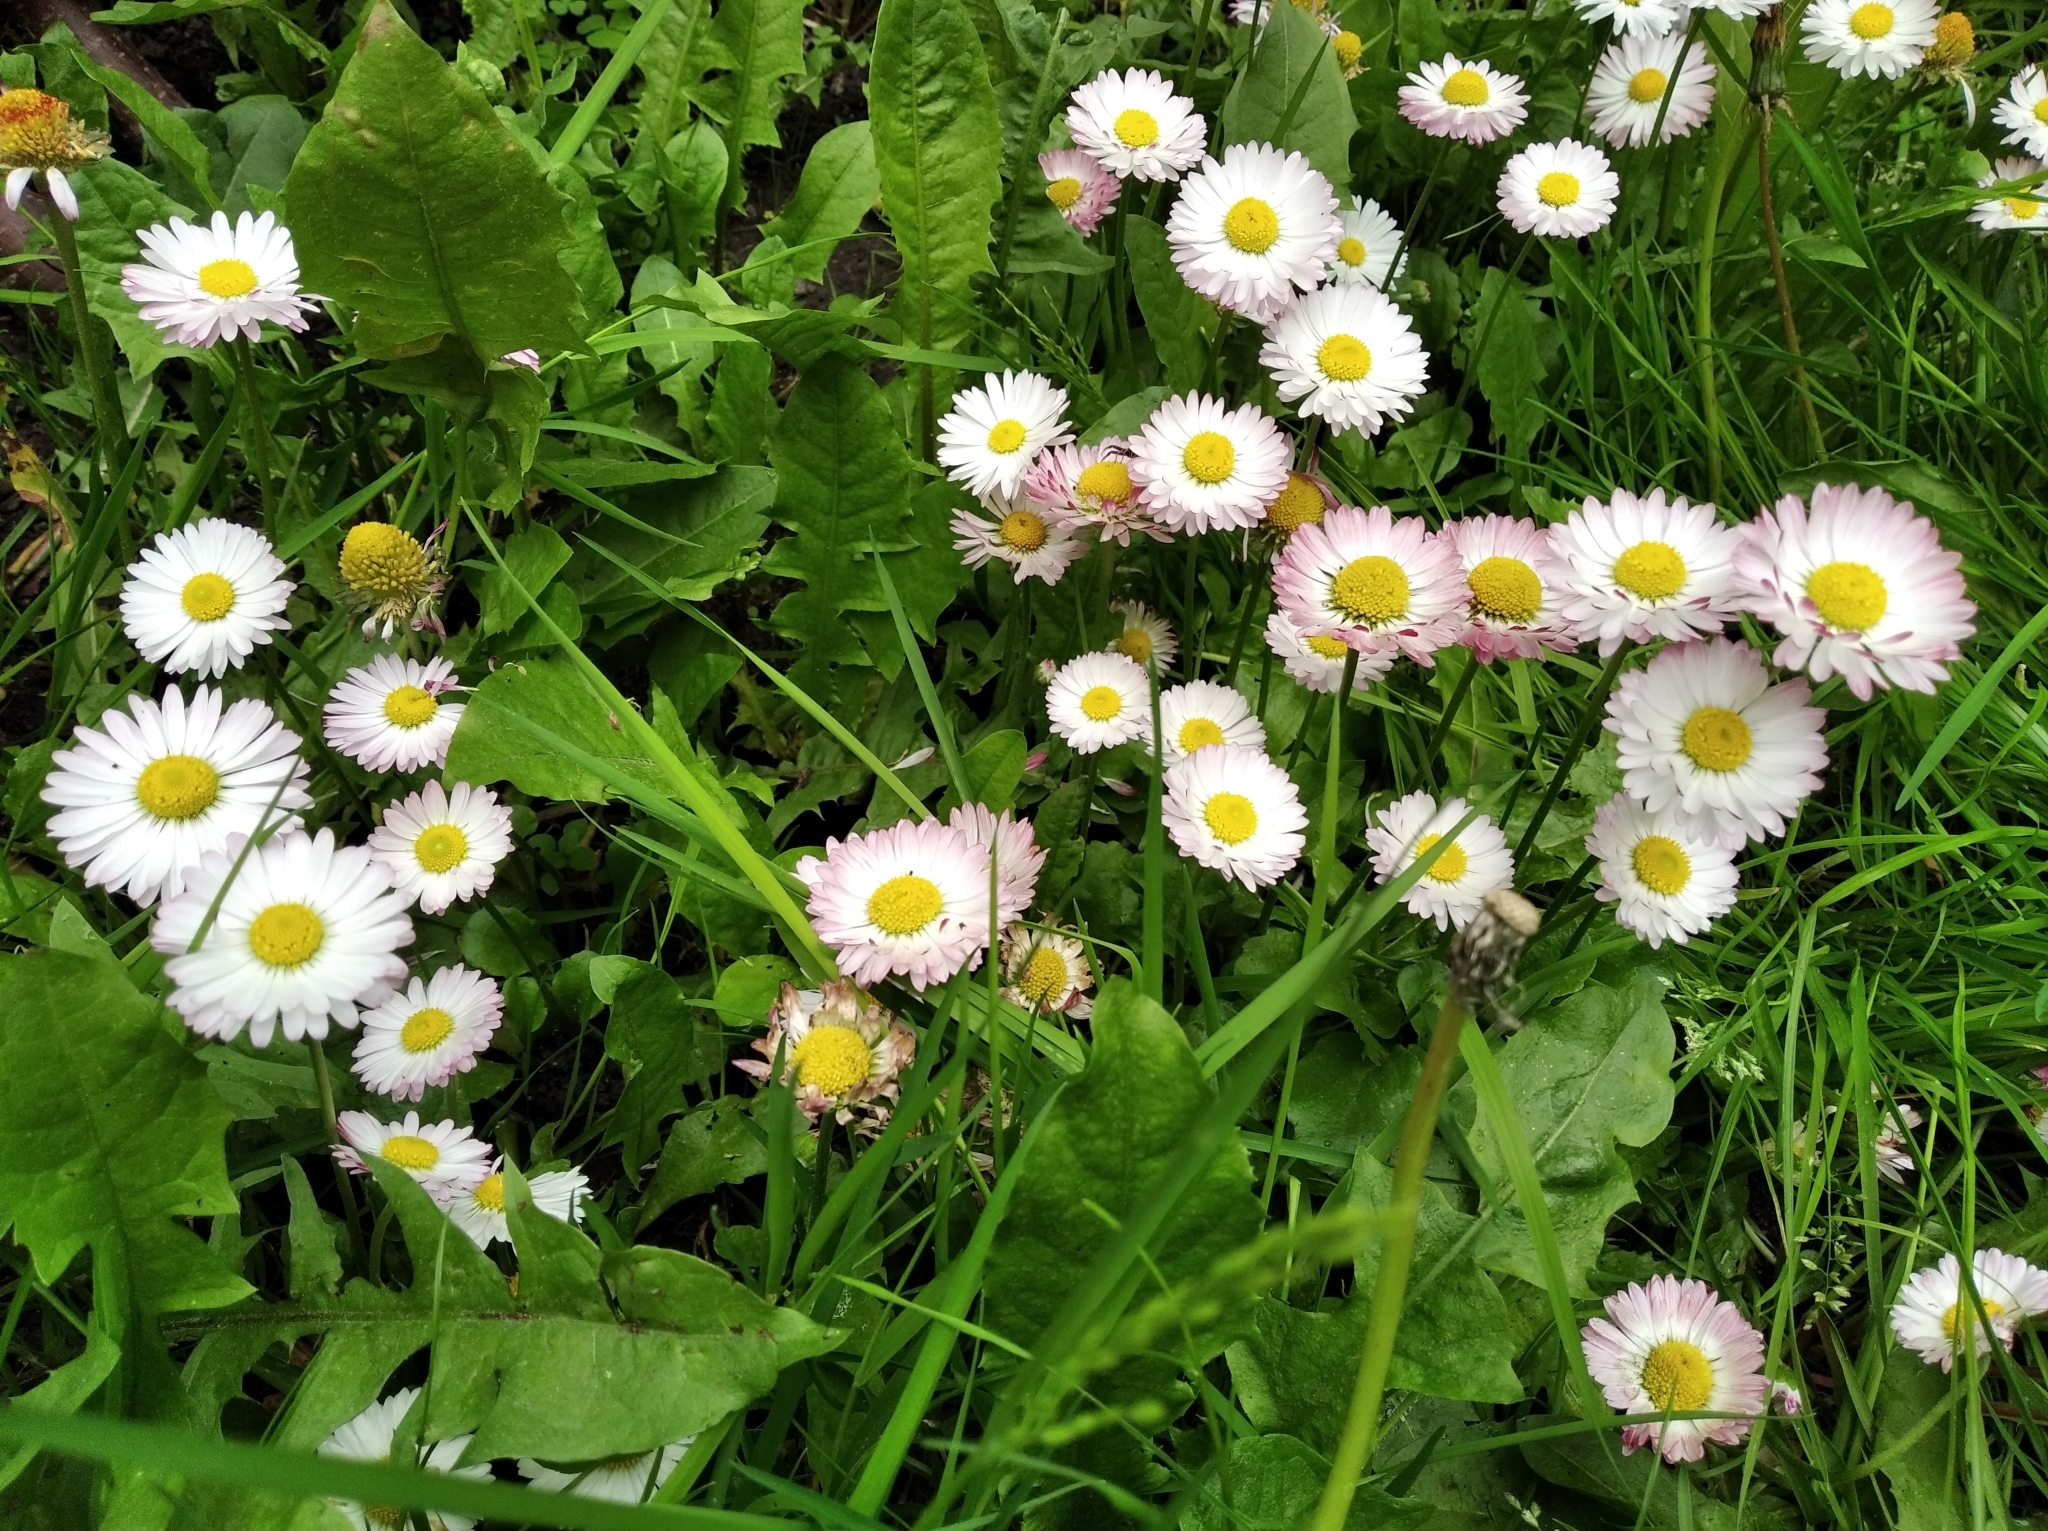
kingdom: Plantae
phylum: Tracheophyta
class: Magnoliopsida
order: Asterales
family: Asteraceae
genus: Bellis
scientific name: Bellis perennis
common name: Lawndaisy
